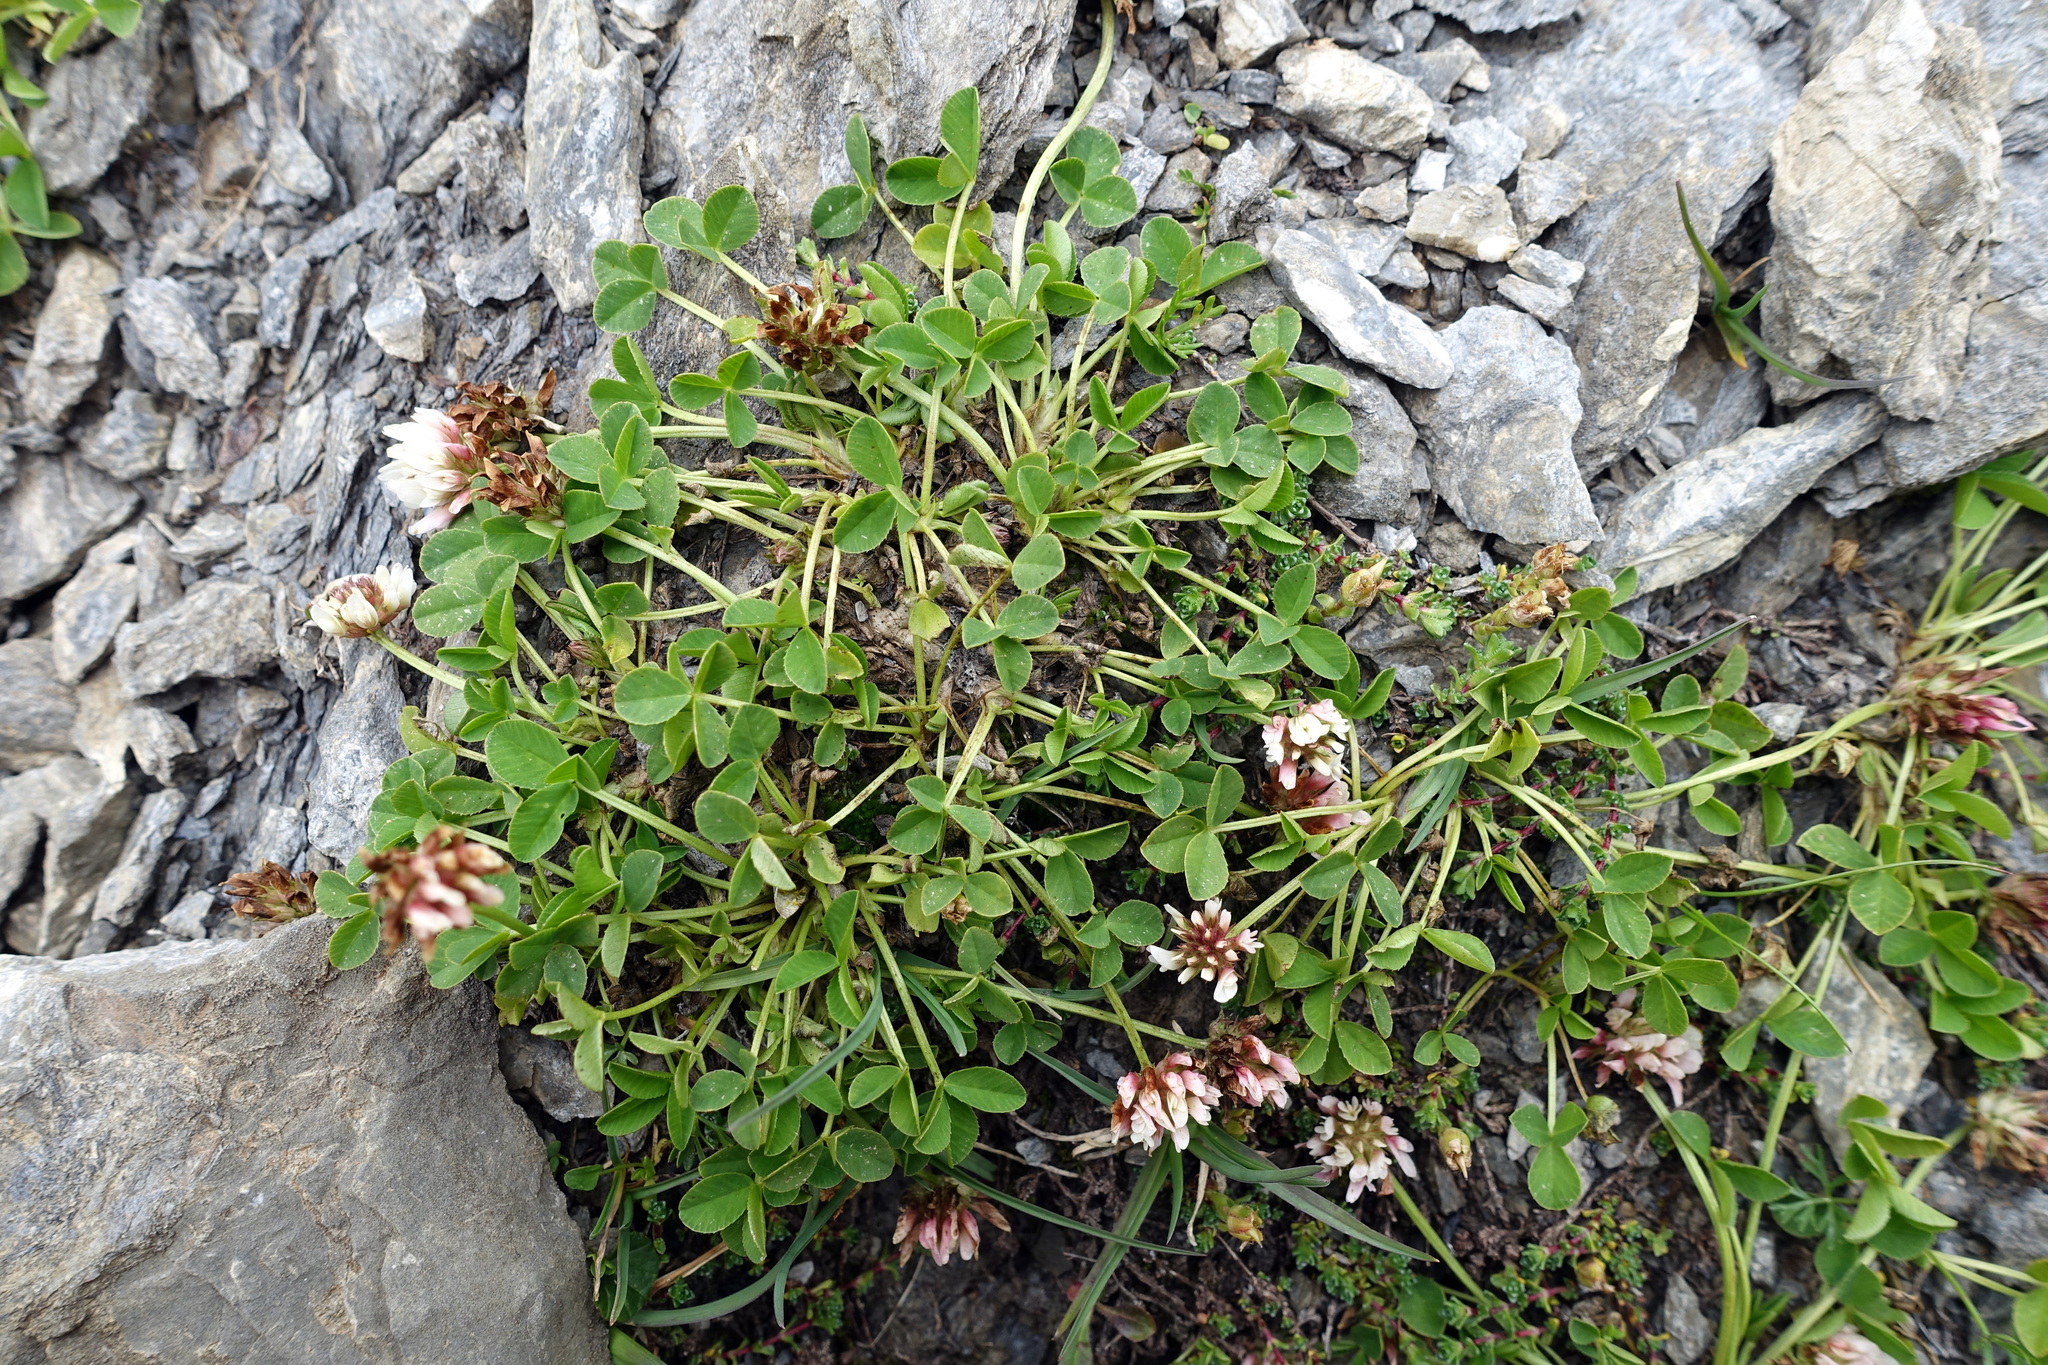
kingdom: Plantae
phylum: Tracheophyta
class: Magnoliopsida
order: Fabales
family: Fabaceae
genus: Trifolium
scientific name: Trifolium thalii
